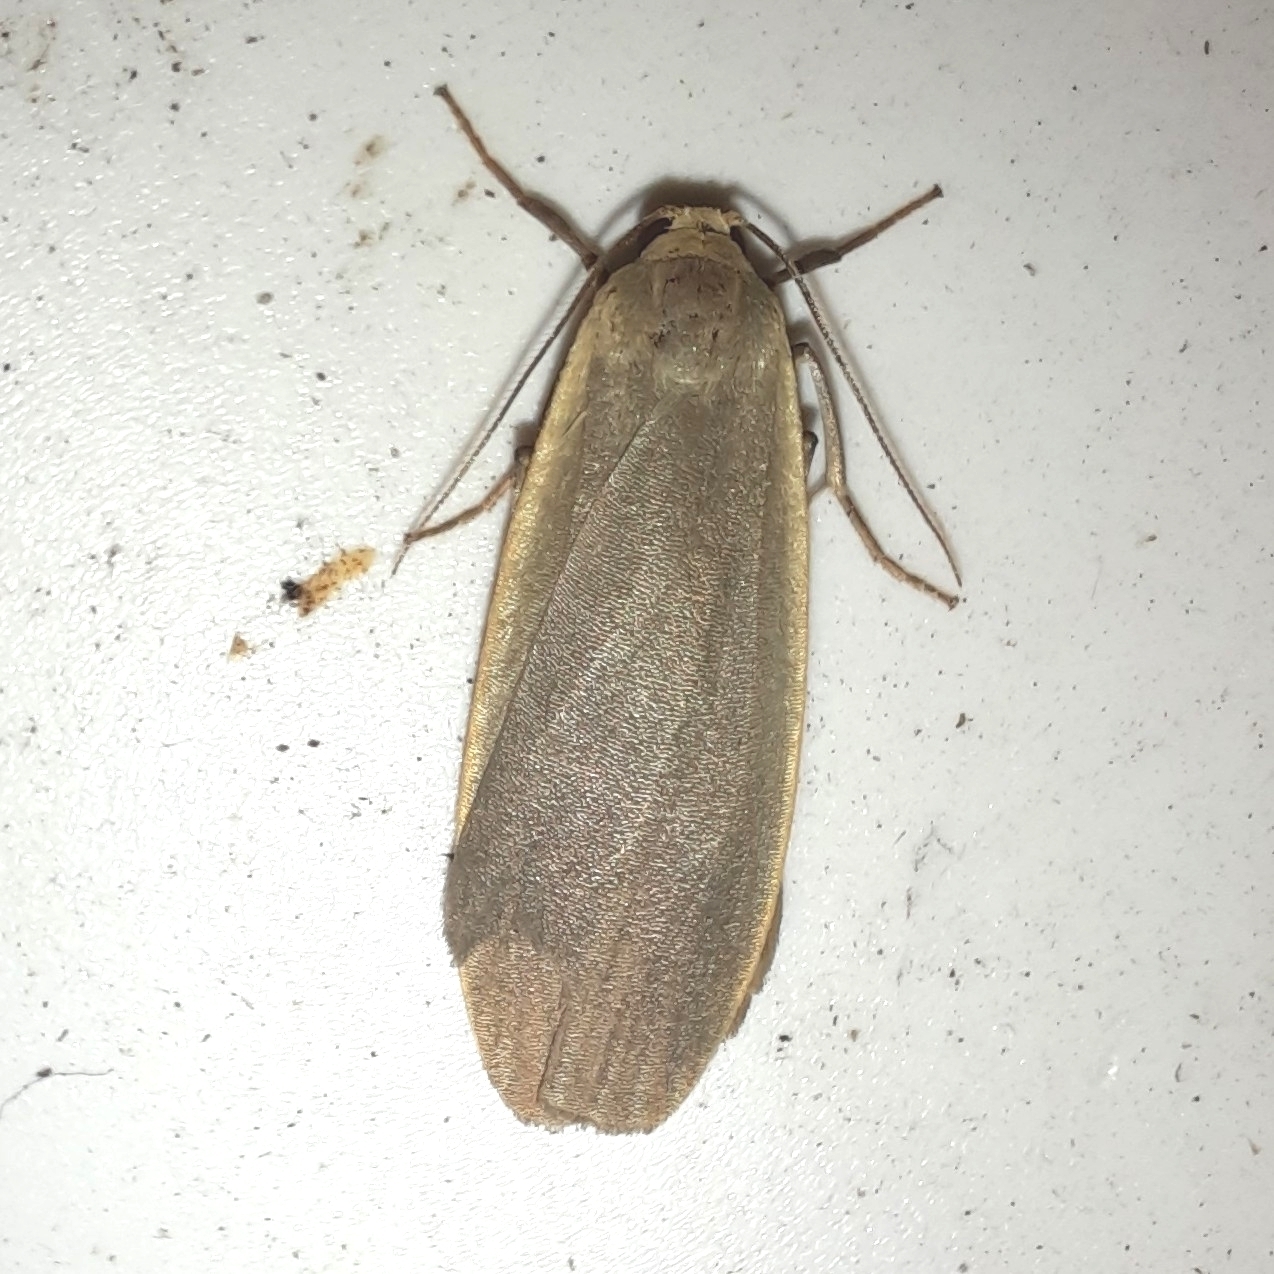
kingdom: Animalia
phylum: Arthropoda
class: Insecta
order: Lepidoptera
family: Erebidae
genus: Collita
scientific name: Collita griseola
